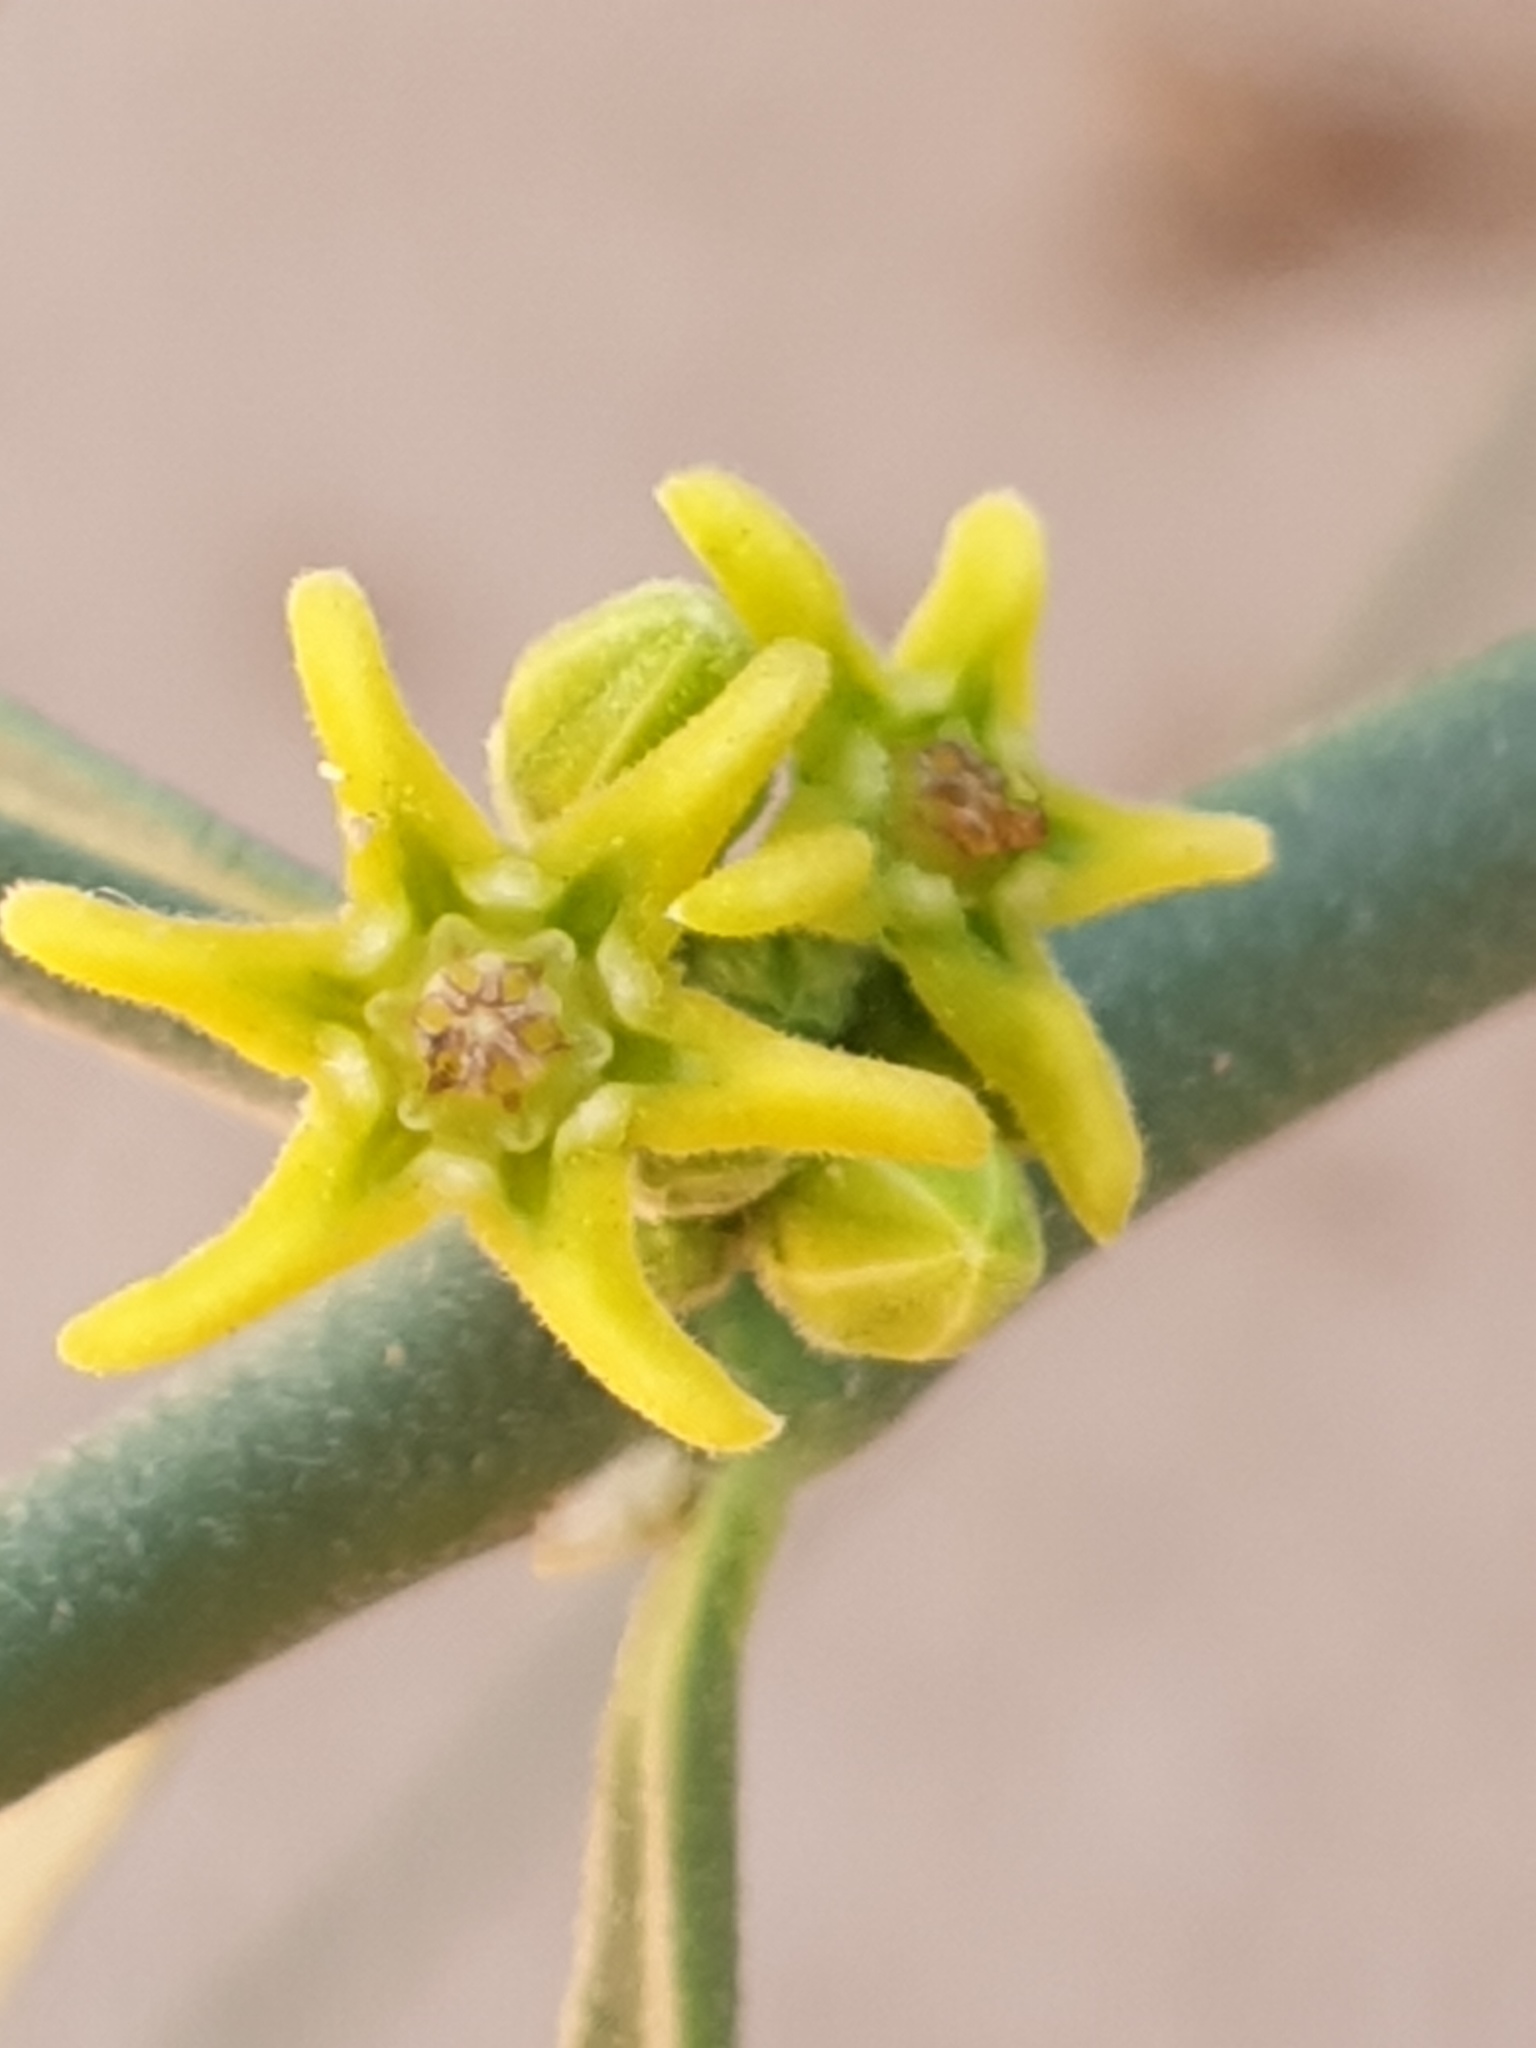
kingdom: Plantae
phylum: Tracheophyta
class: Magnoliopsida
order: Gentianales
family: Apocynaceae
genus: Leptadenia
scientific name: Leptadenia pyrotechnica
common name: Broom brush
